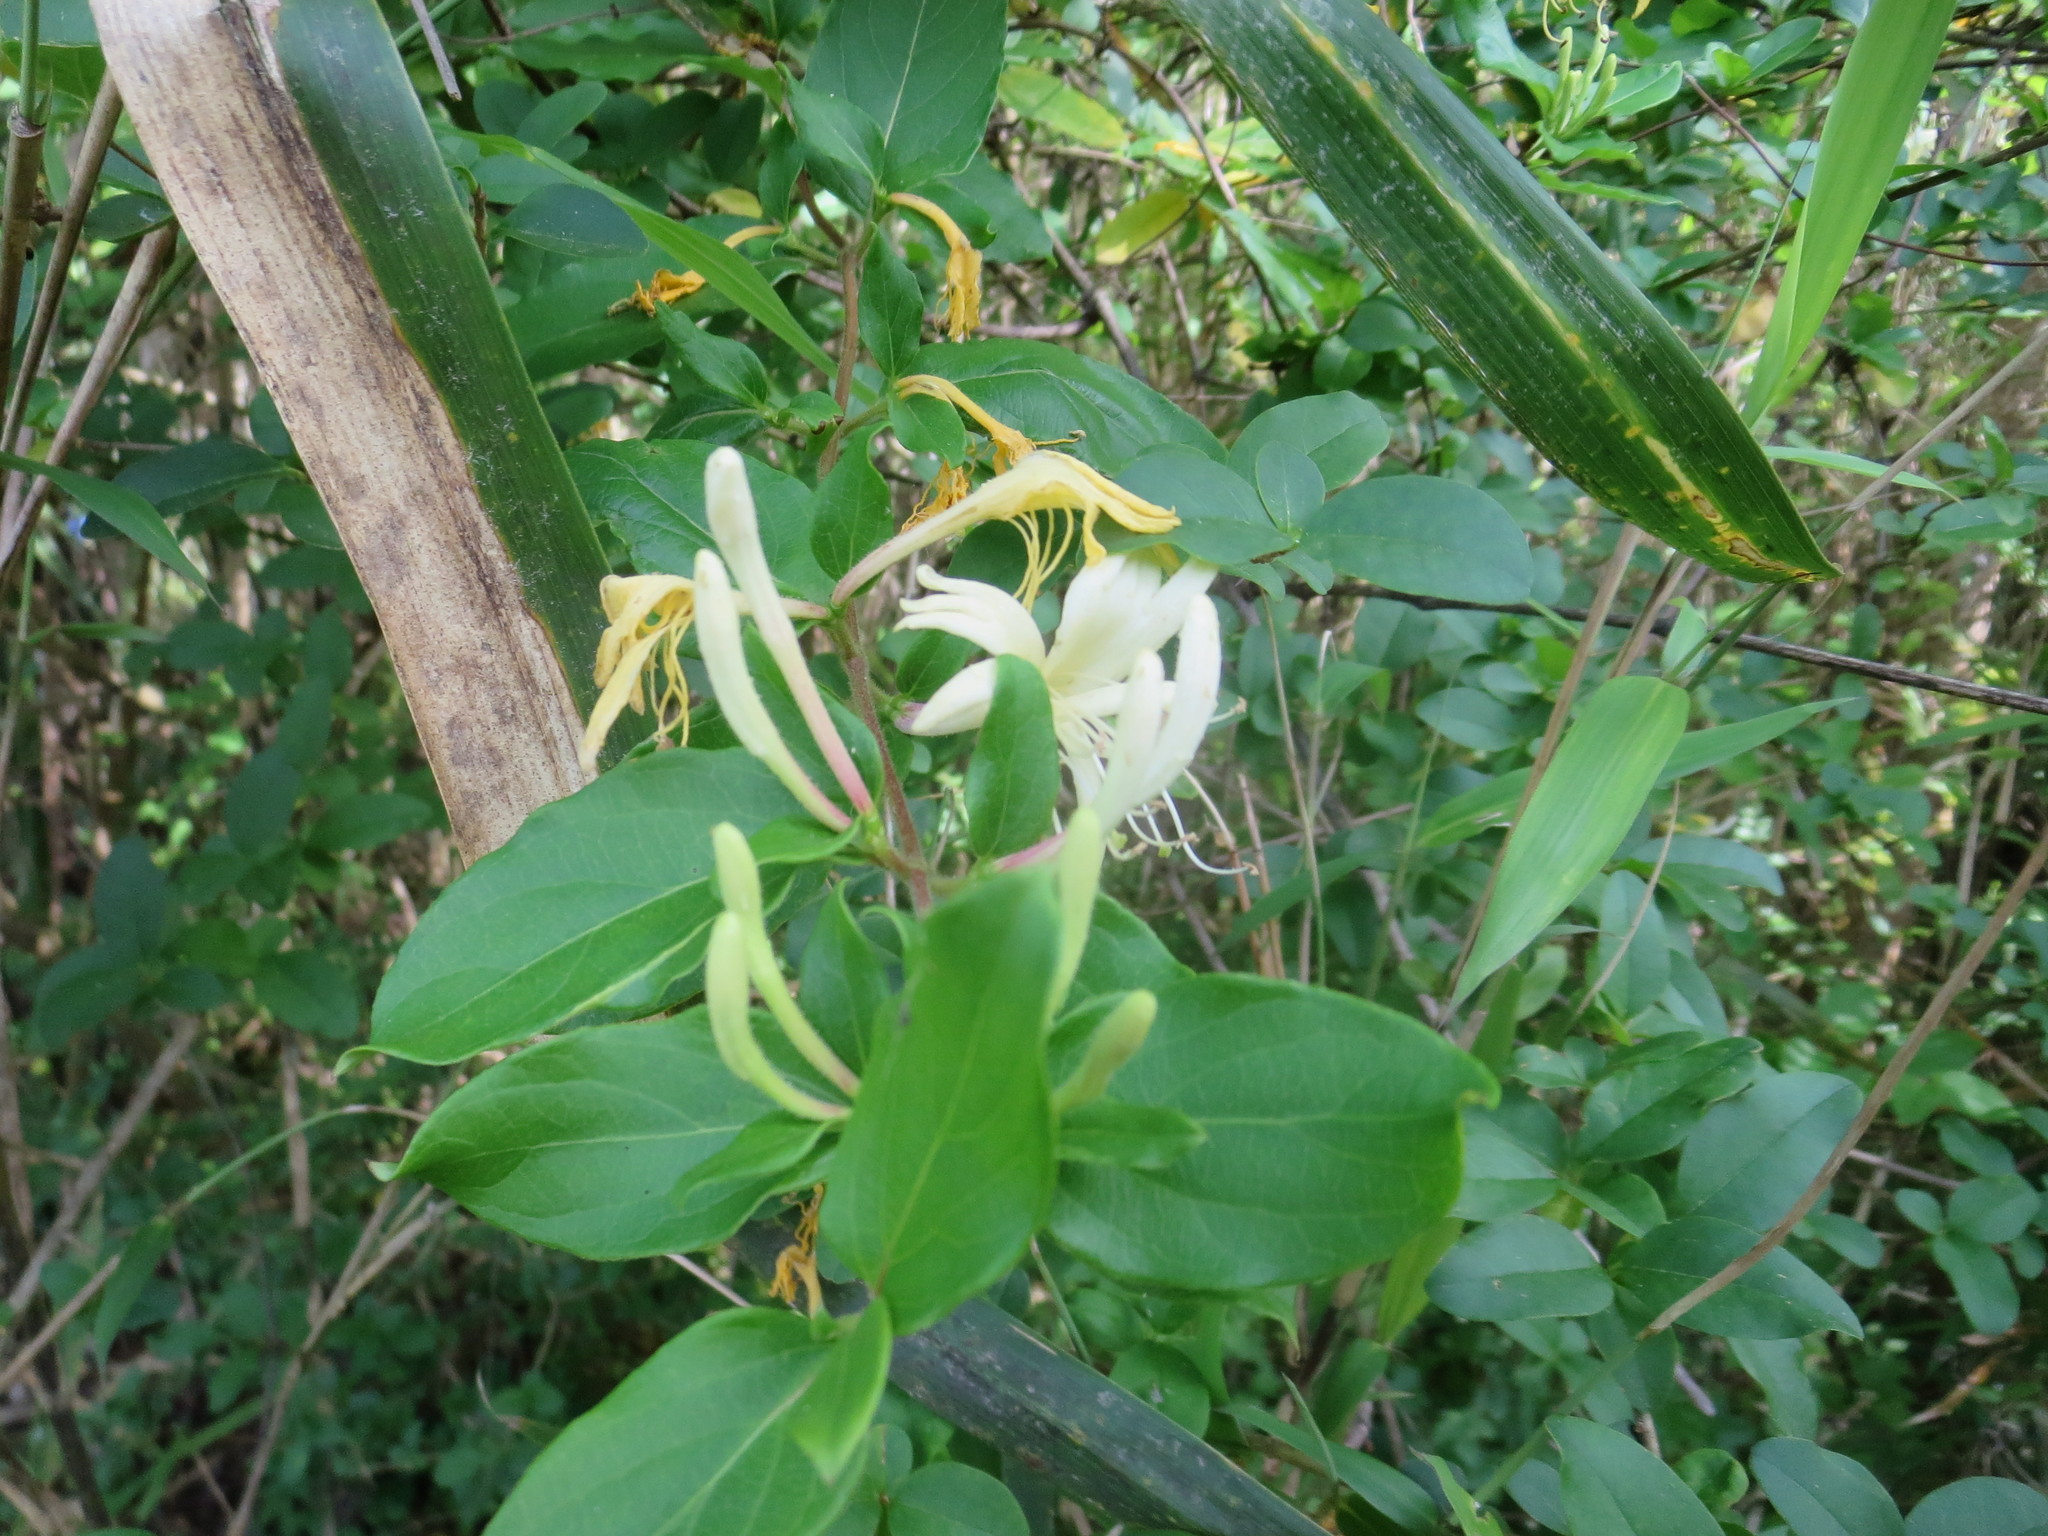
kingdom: Plantae
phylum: Tracheophyta
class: Magnoliopsida
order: Dipsacales
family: Caprifoliaceae
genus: Lonicera
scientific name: Lonicera japonica
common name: Japanese honeysuckle
